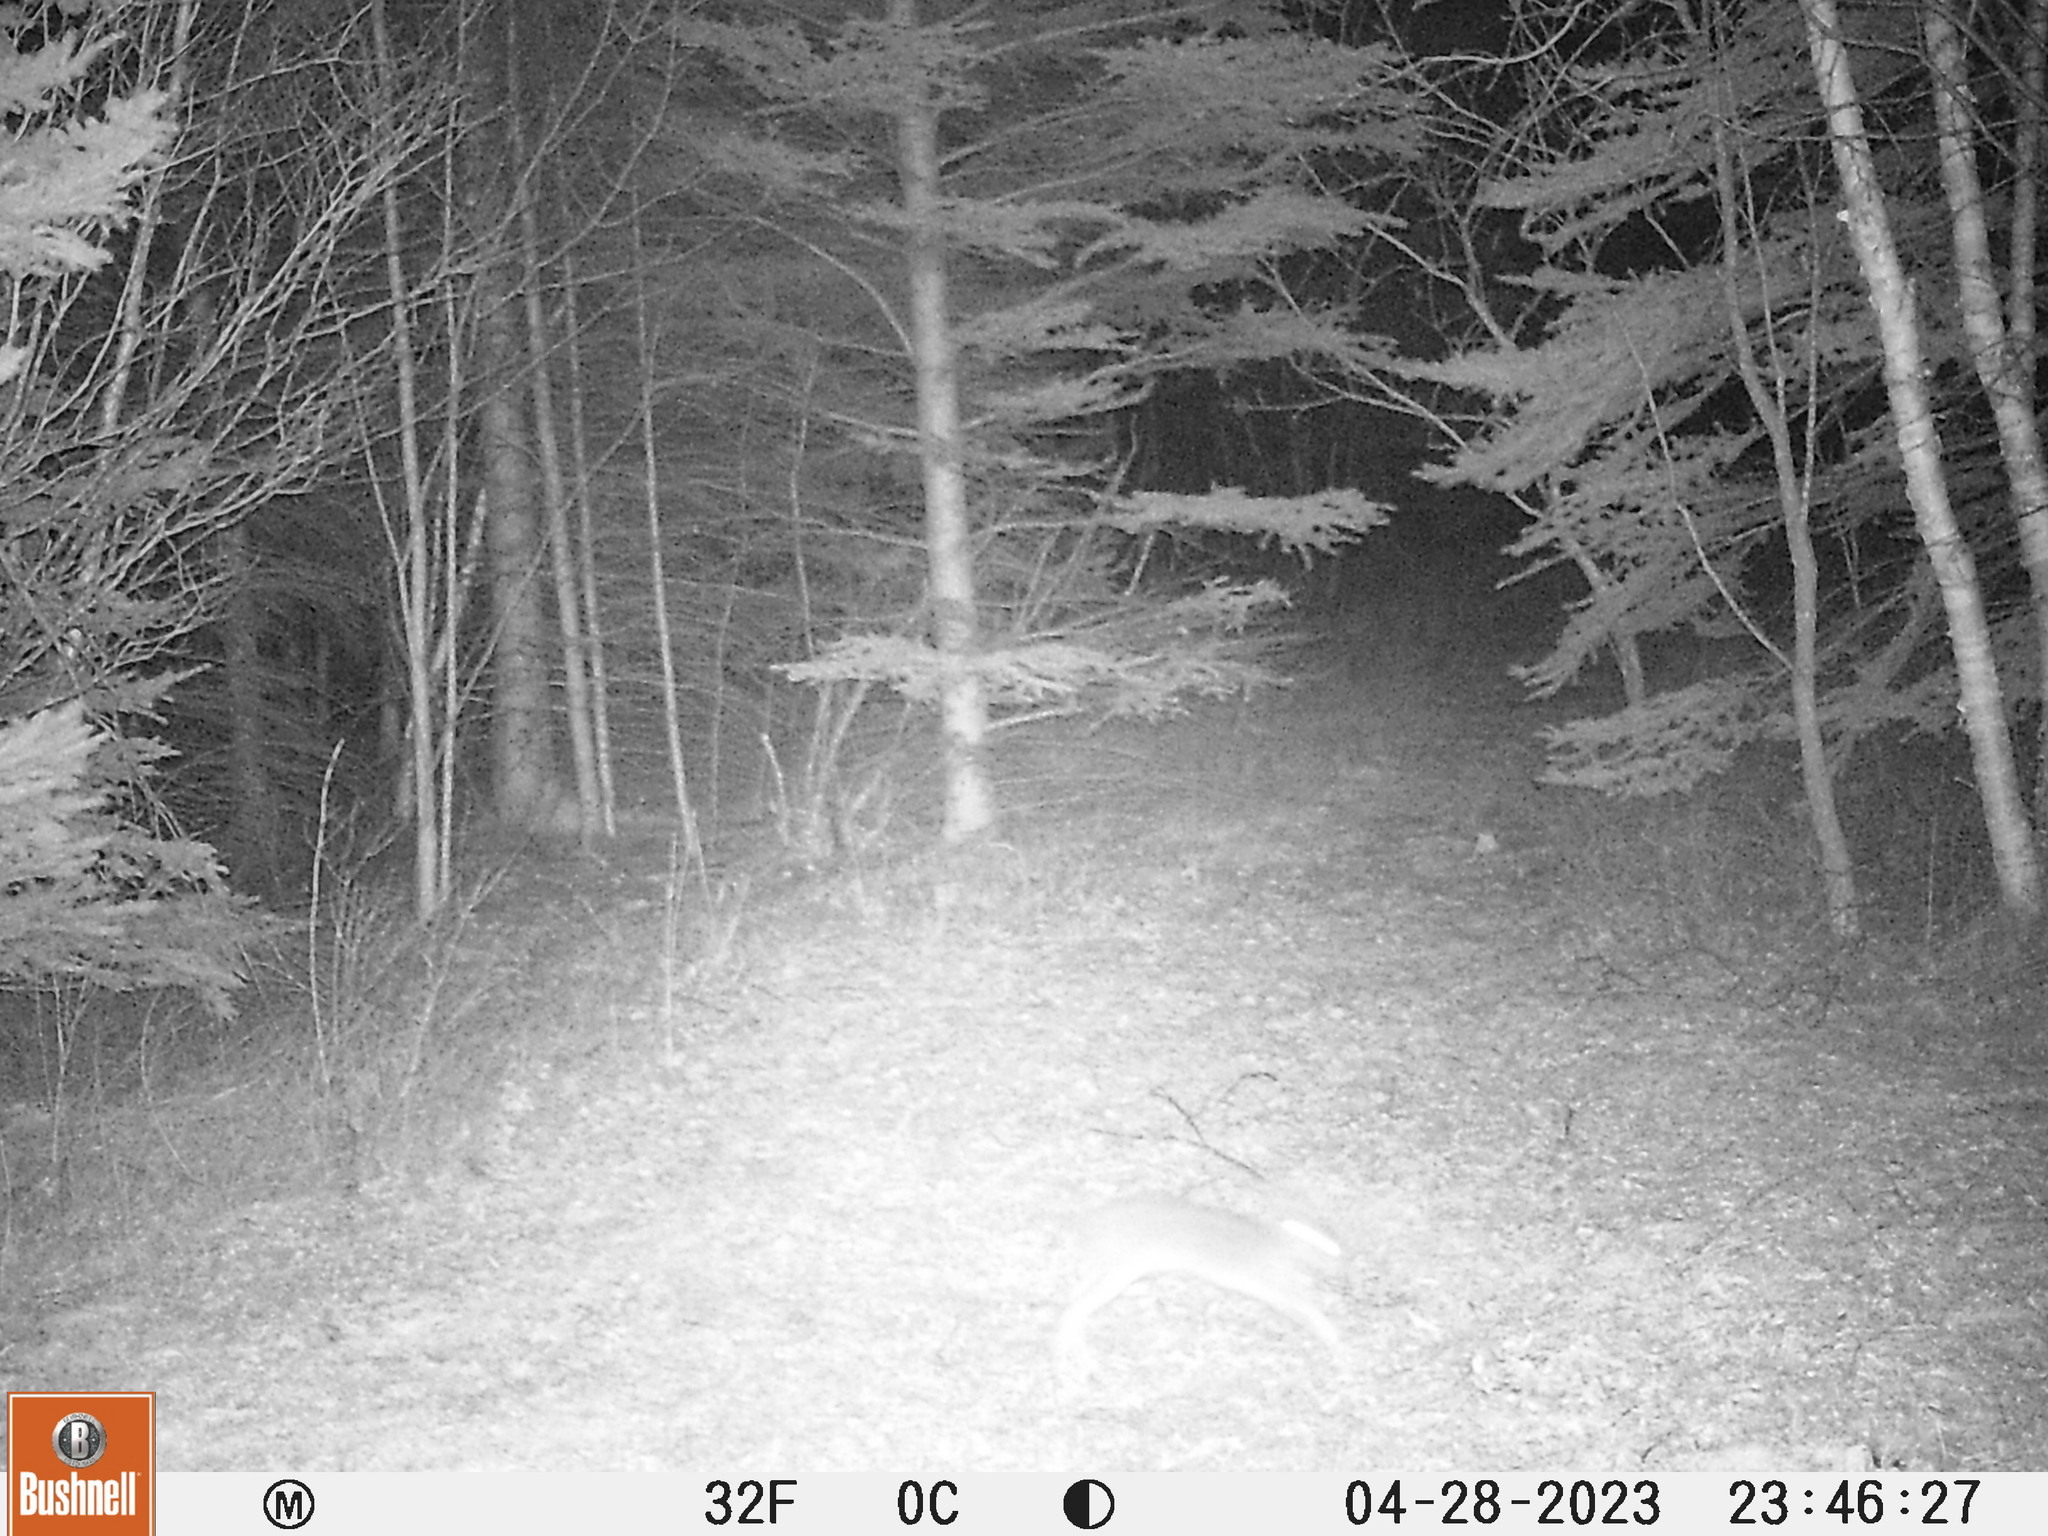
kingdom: Animalia
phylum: Chordata
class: Mammalia
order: Lagomorpha
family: Leporidae
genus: Lepus
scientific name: Lepus americanus
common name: Snowshoe hare
